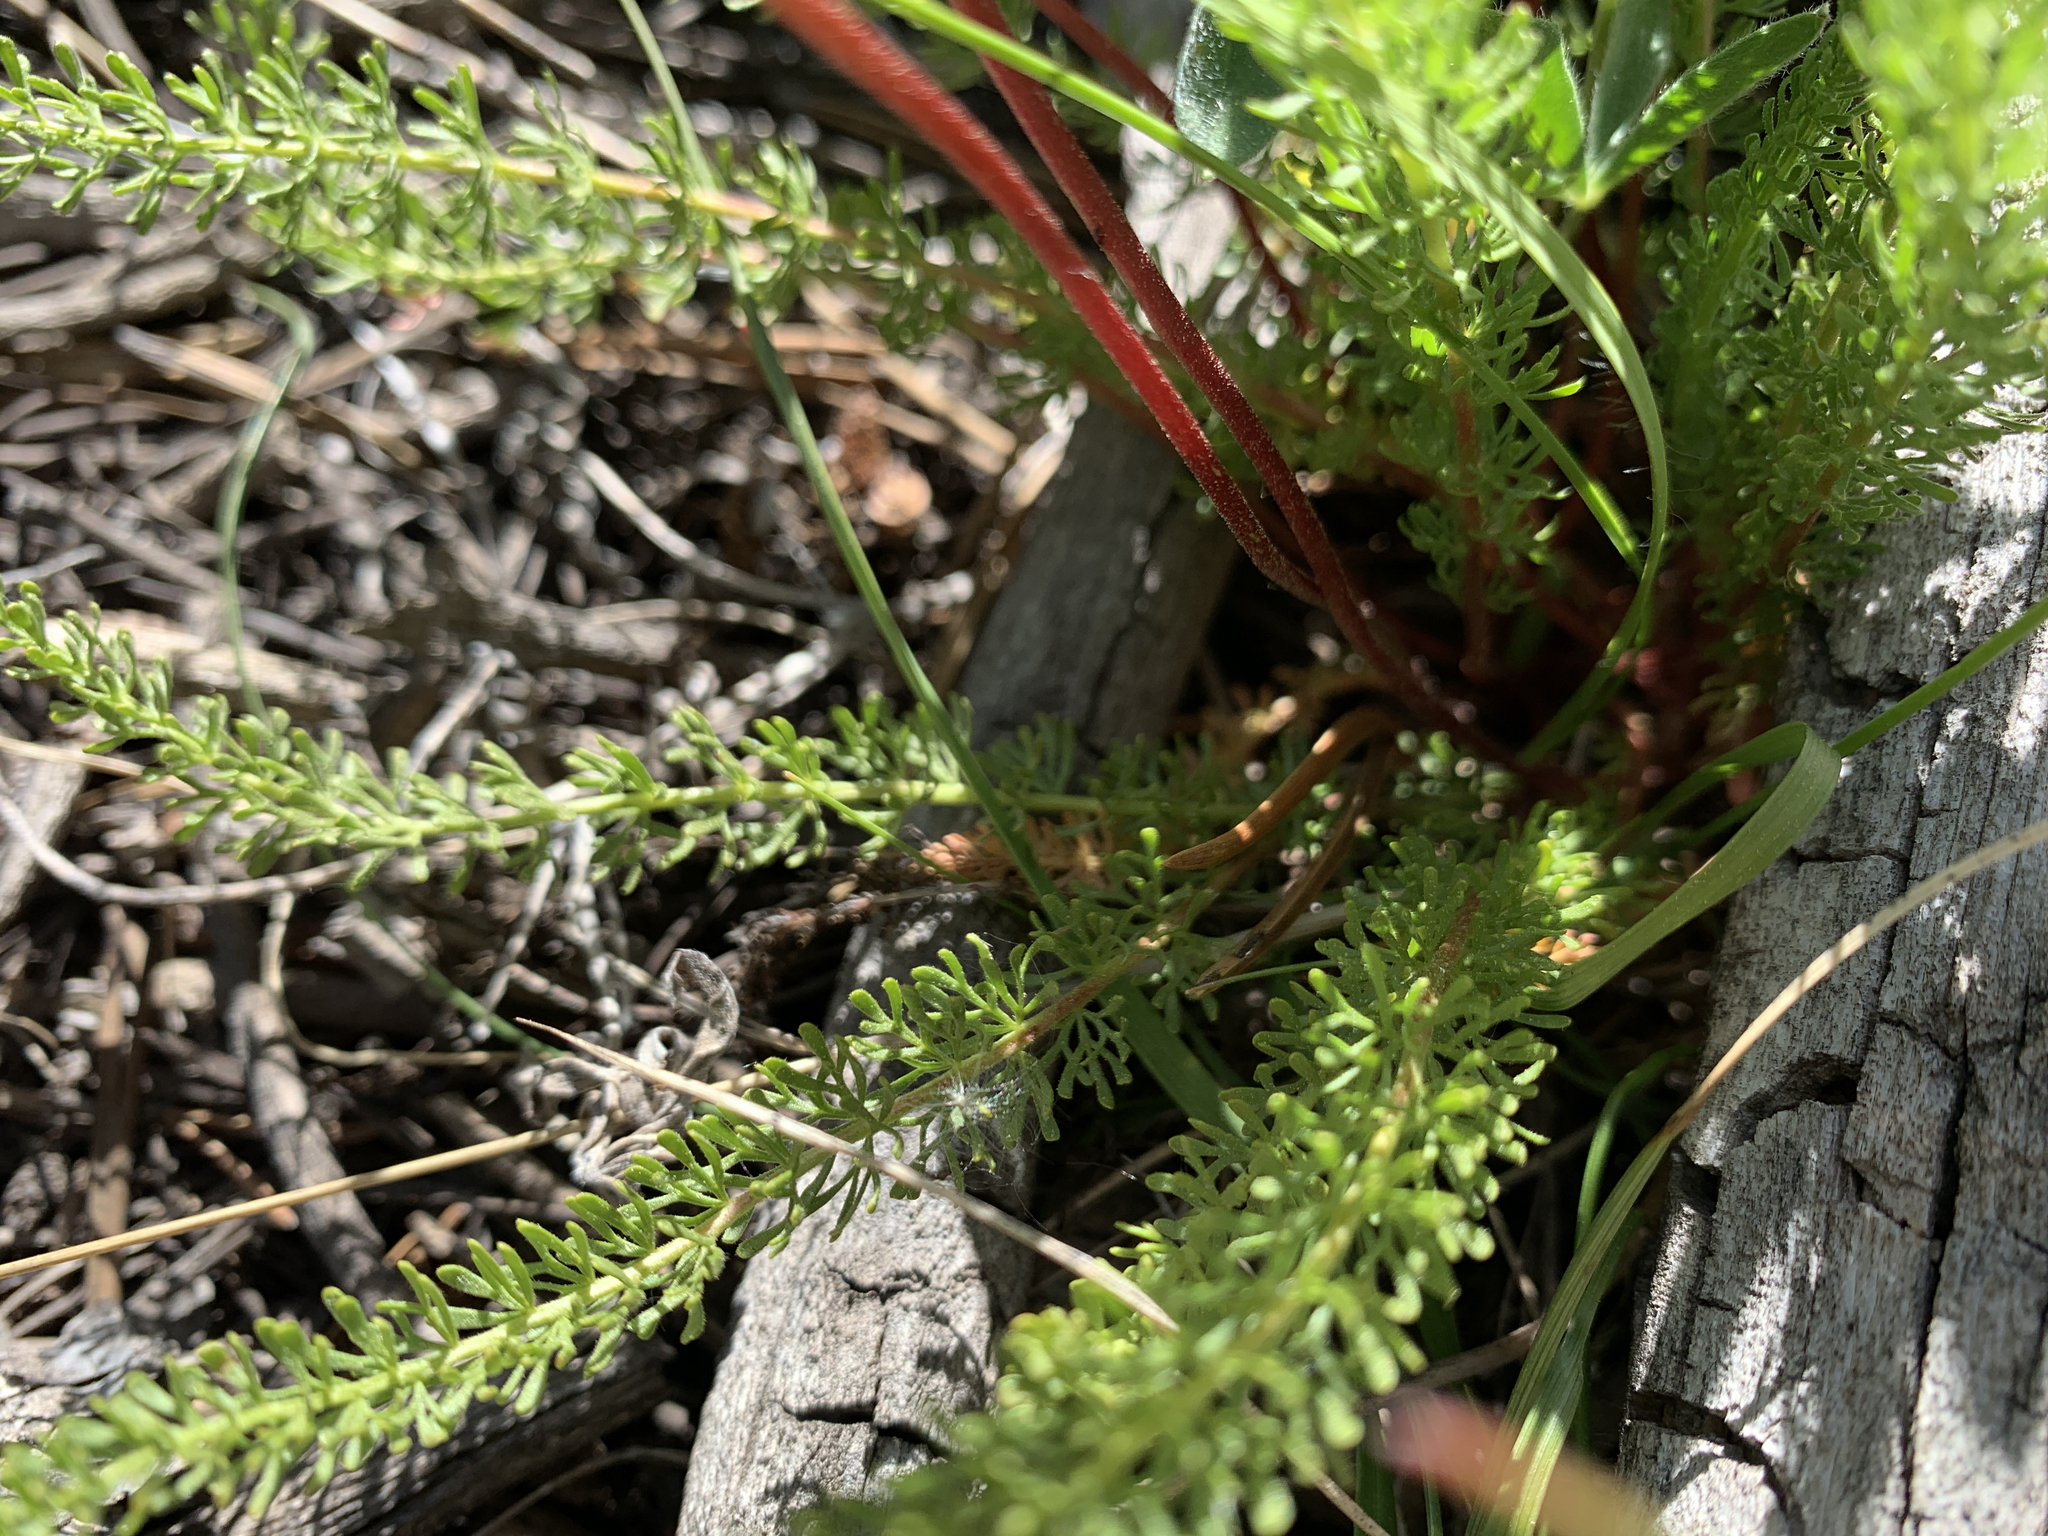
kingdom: Plantae
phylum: Tracheophyta
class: Magnoliopsida
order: Rosales
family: Rosaceae
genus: Potentilla
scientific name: Potentilla gordonii
